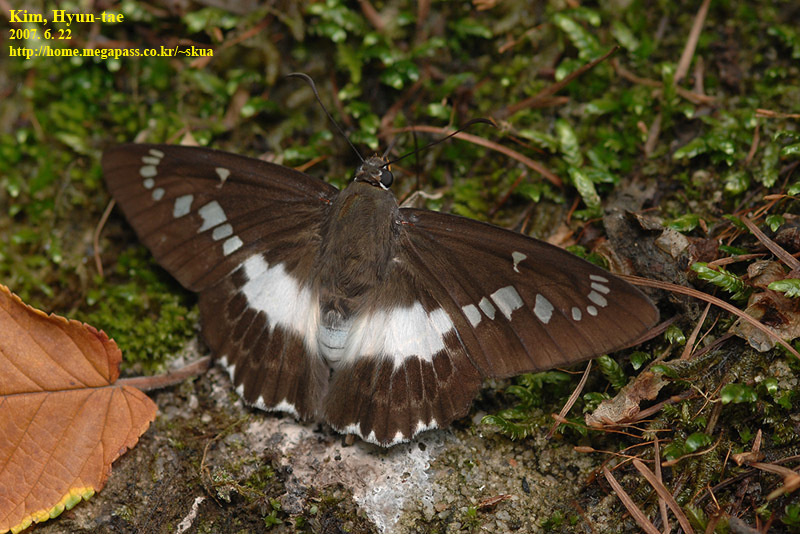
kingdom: Animalia
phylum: Arthropoda
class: Insecta
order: Lepidoptera
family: Hesperiidae
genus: Satarupa
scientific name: Satarupa nymphalis
